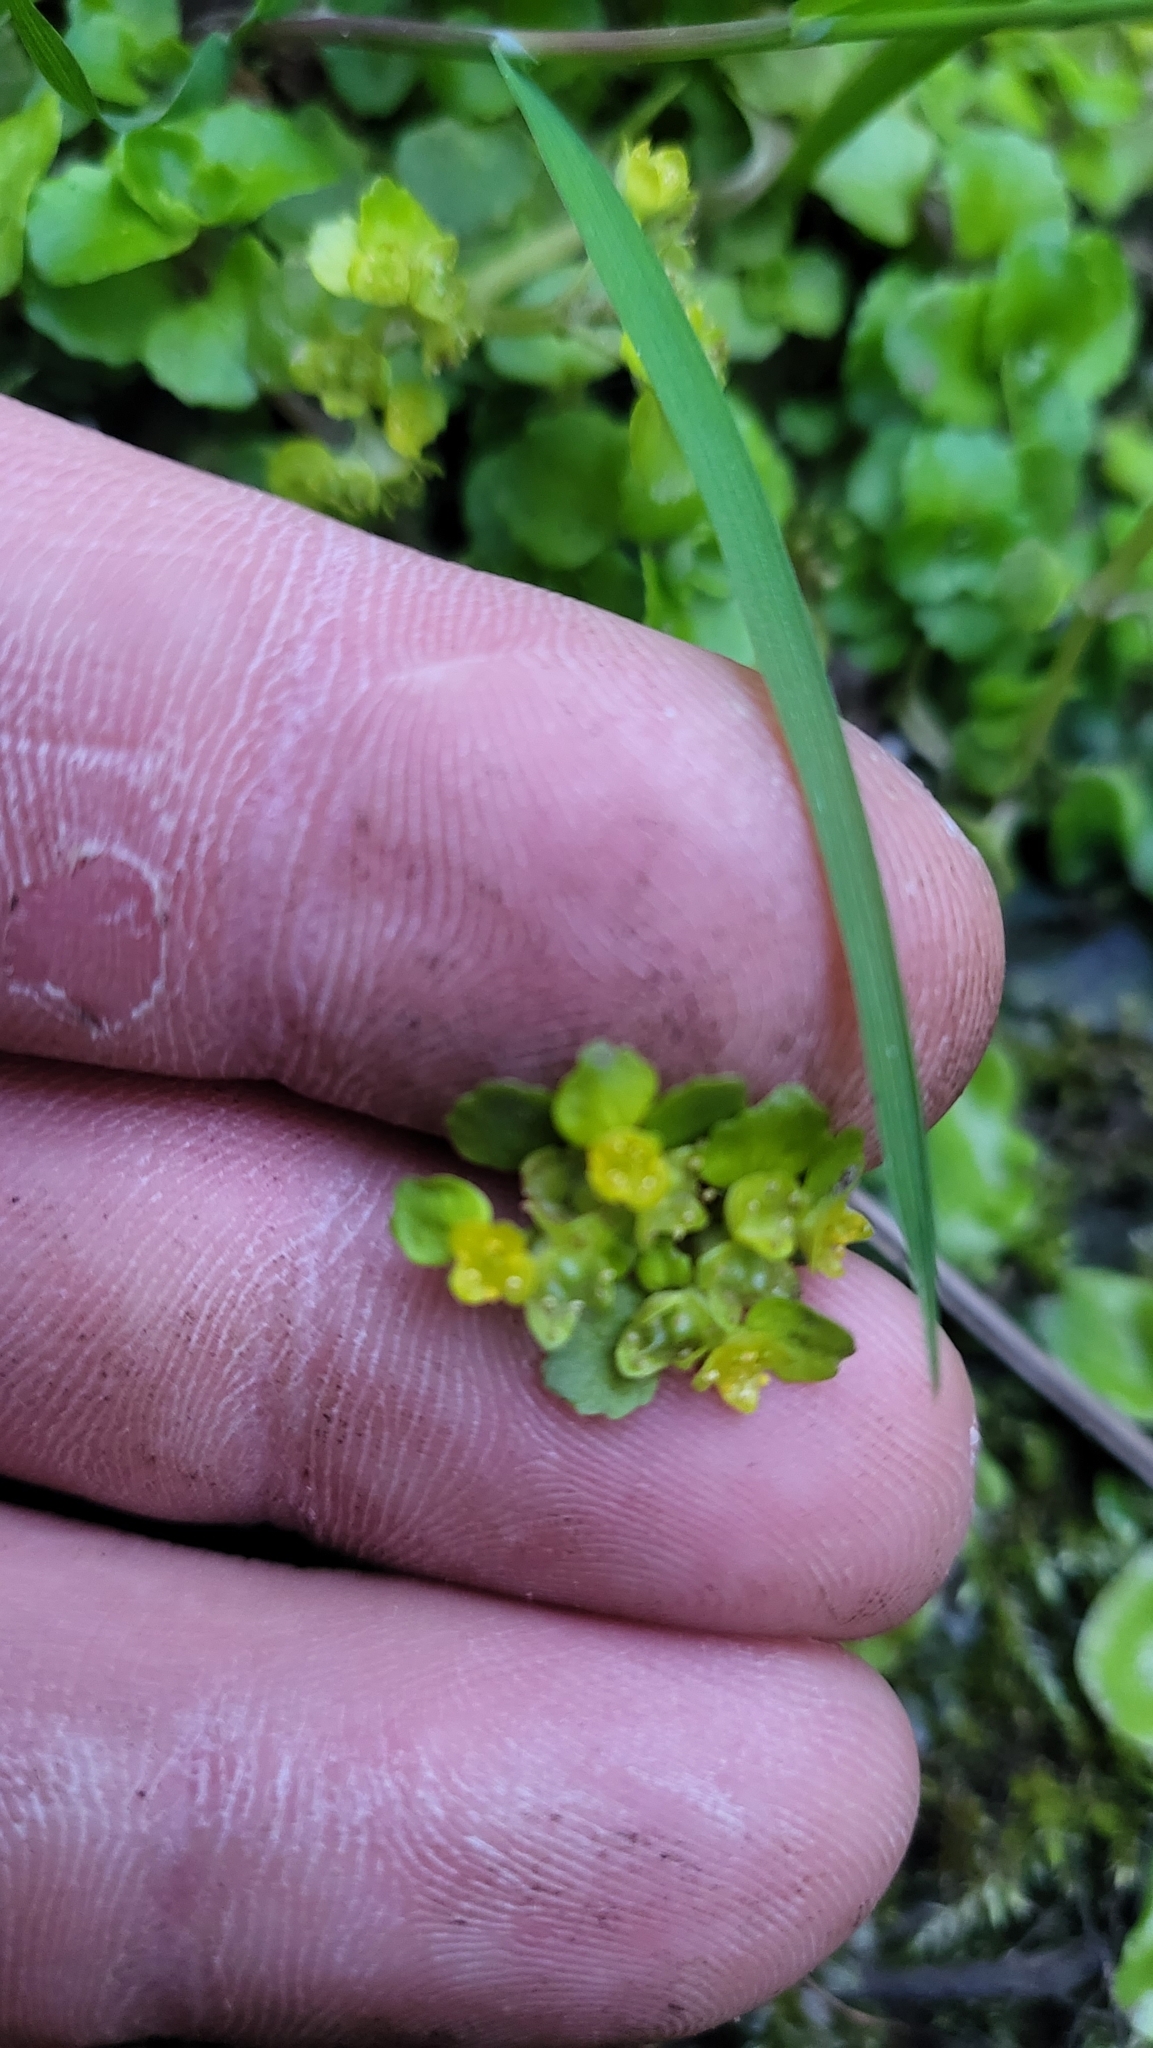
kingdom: Plantae
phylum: Tracheophyta
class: Magnoliopsida
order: Saxifragales
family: Saxifragaceae
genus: Chrysosplenium
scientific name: Chrysosplenium oppositifolium
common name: Opposite-leaved golden-saxifrage
